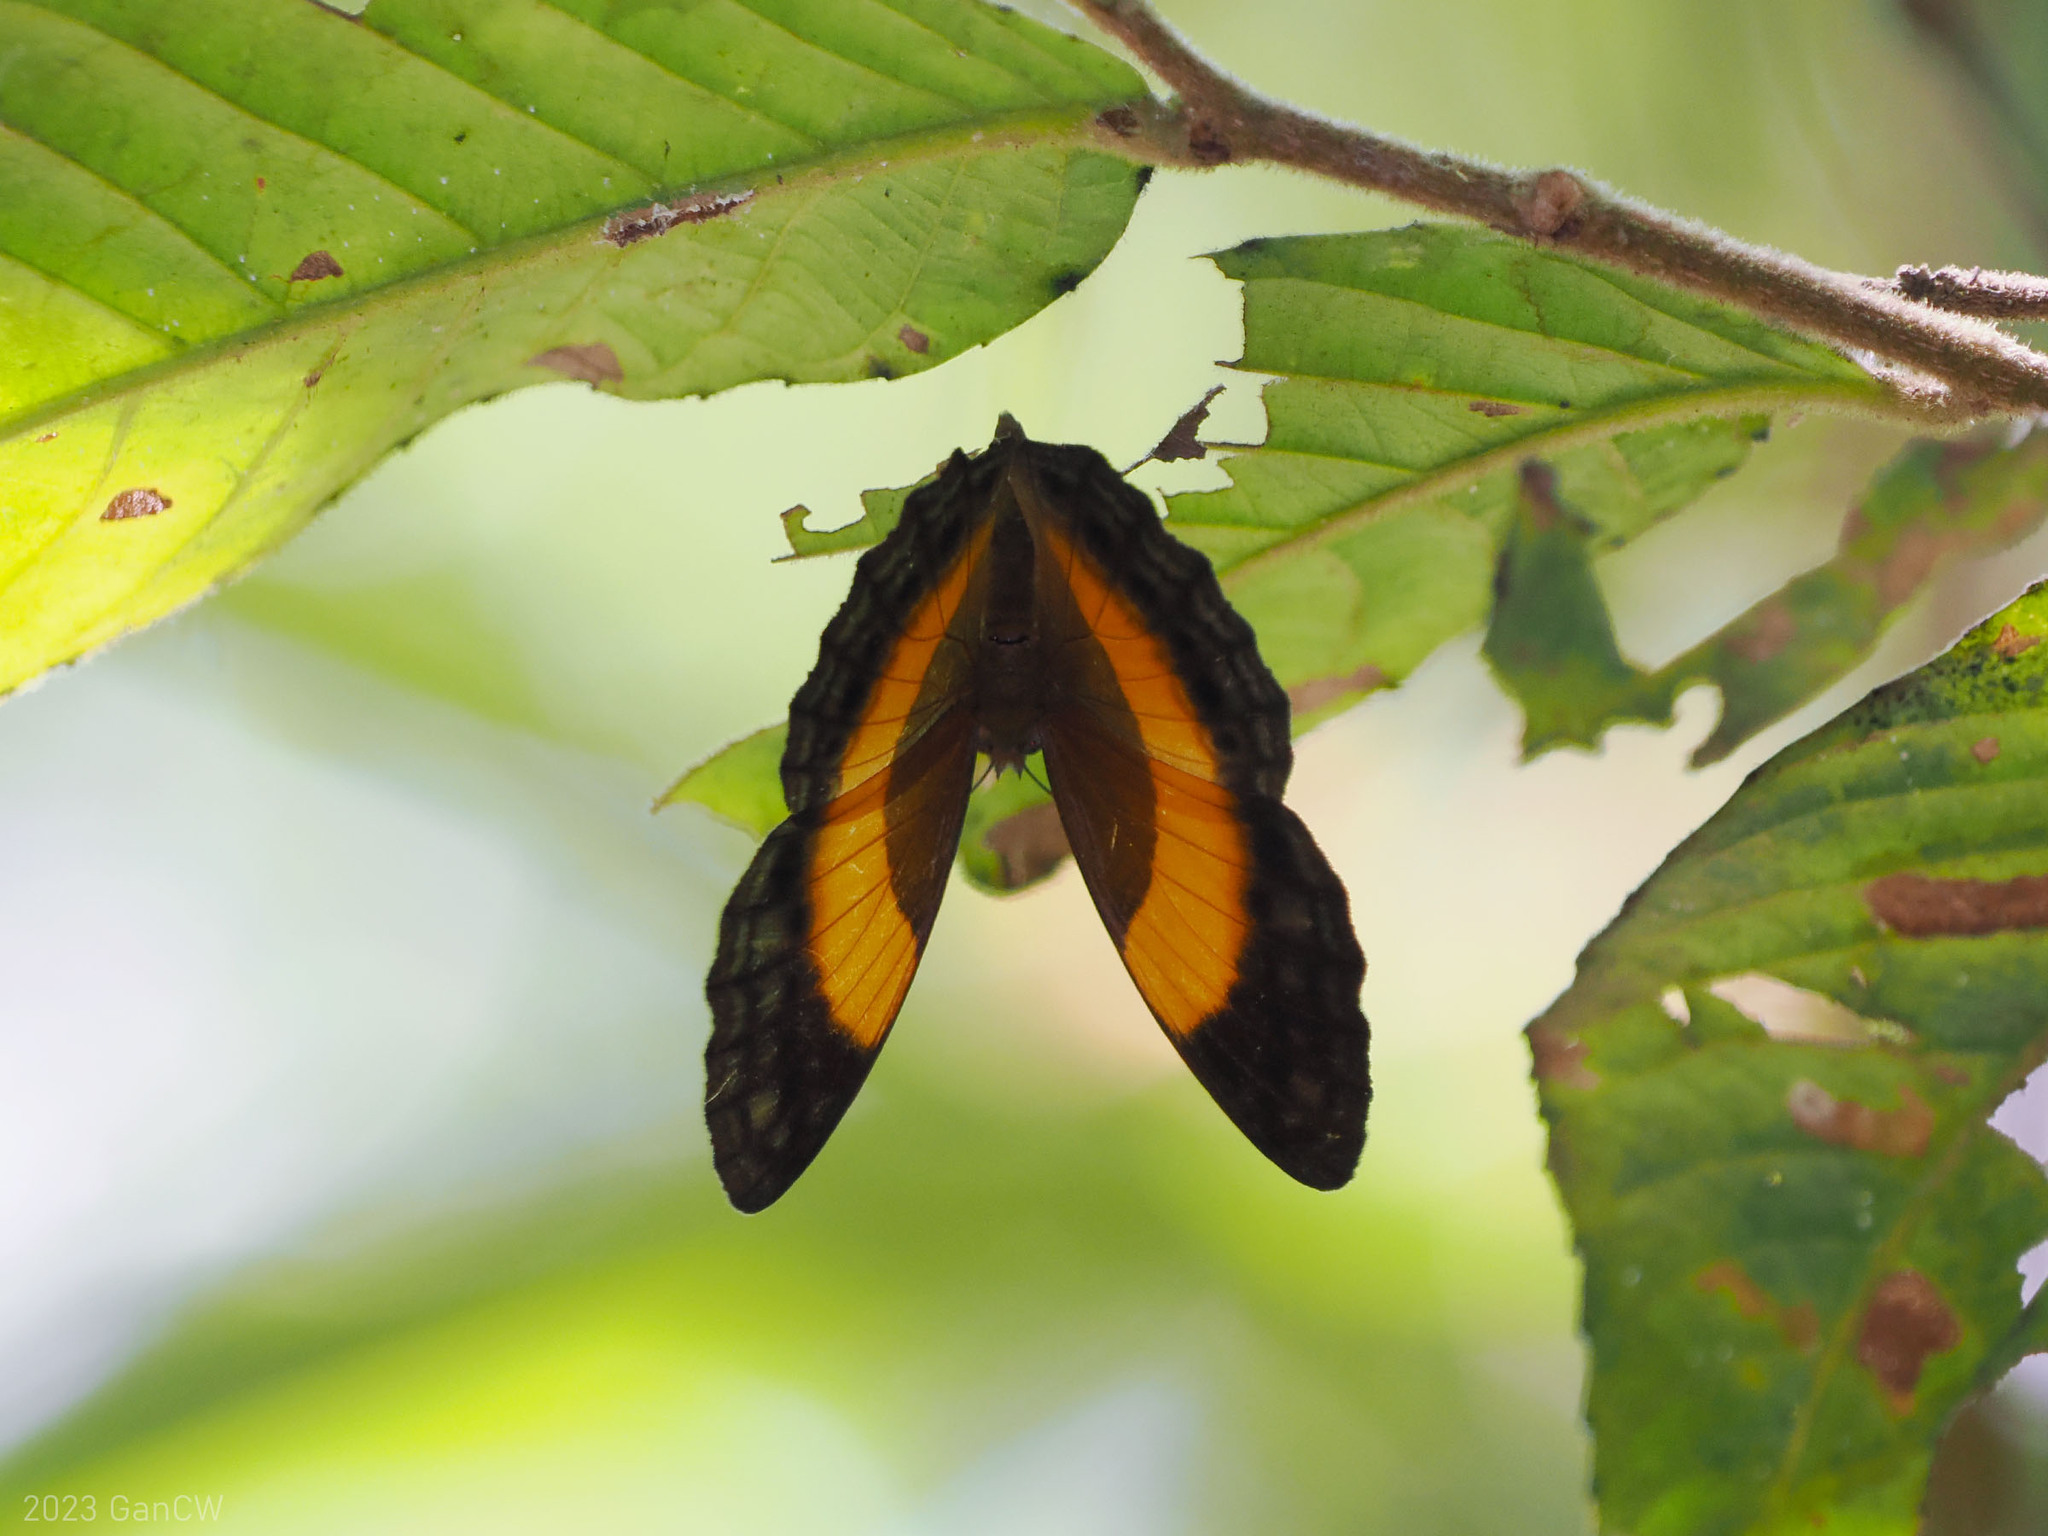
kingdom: Animalia
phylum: Arthropoda
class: Insecta
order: Lepidoptera
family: Nymphalidae
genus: Cupha
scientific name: Cupha prosope
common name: Bordered rustic
